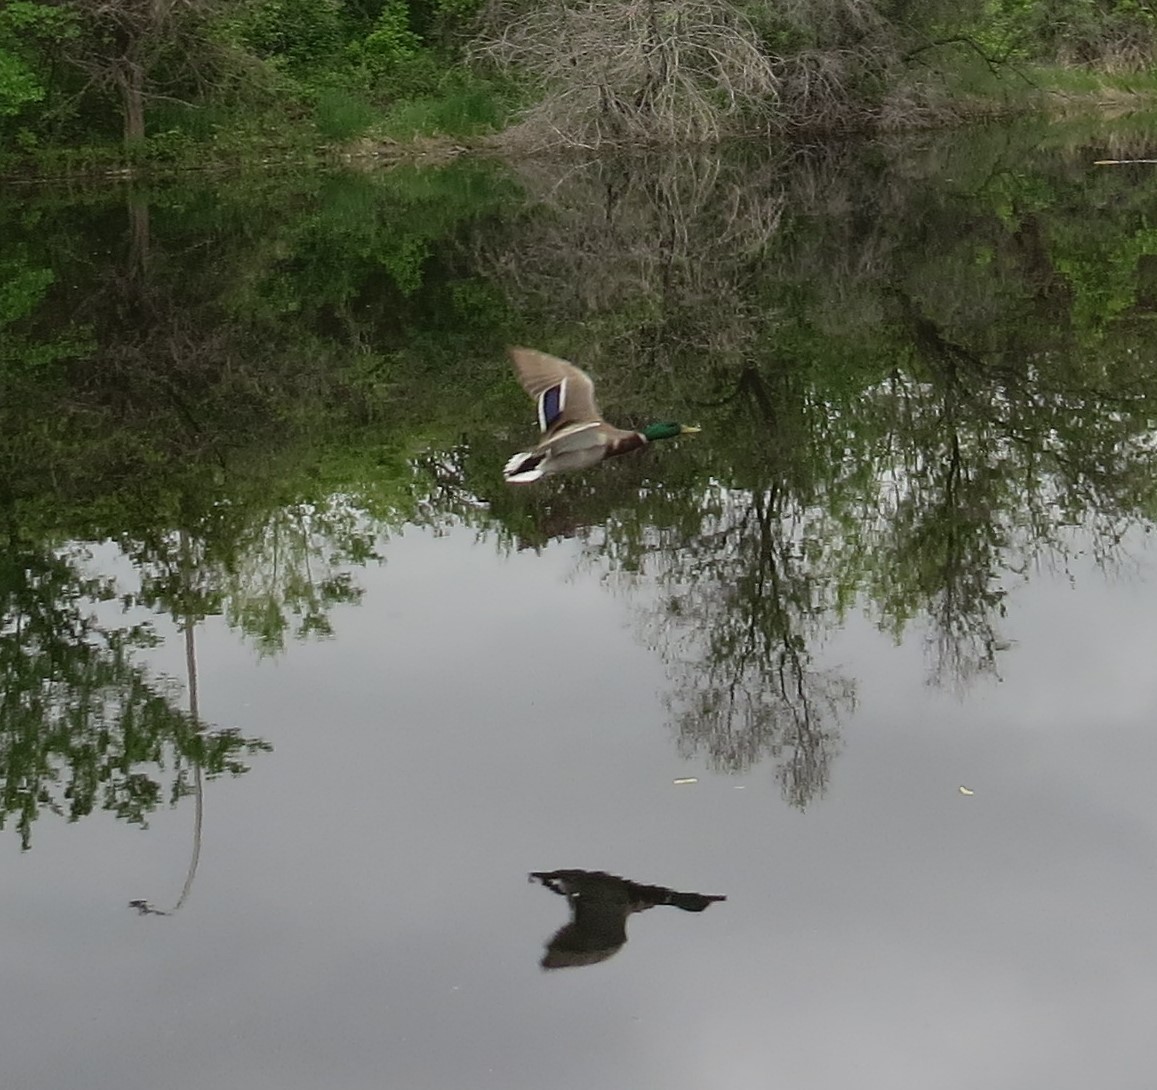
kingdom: Animalia
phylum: Chordata
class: Aves
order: Anseriformes
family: Anatidae
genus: Anas
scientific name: Anas platyrhynchos
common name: Mallard
